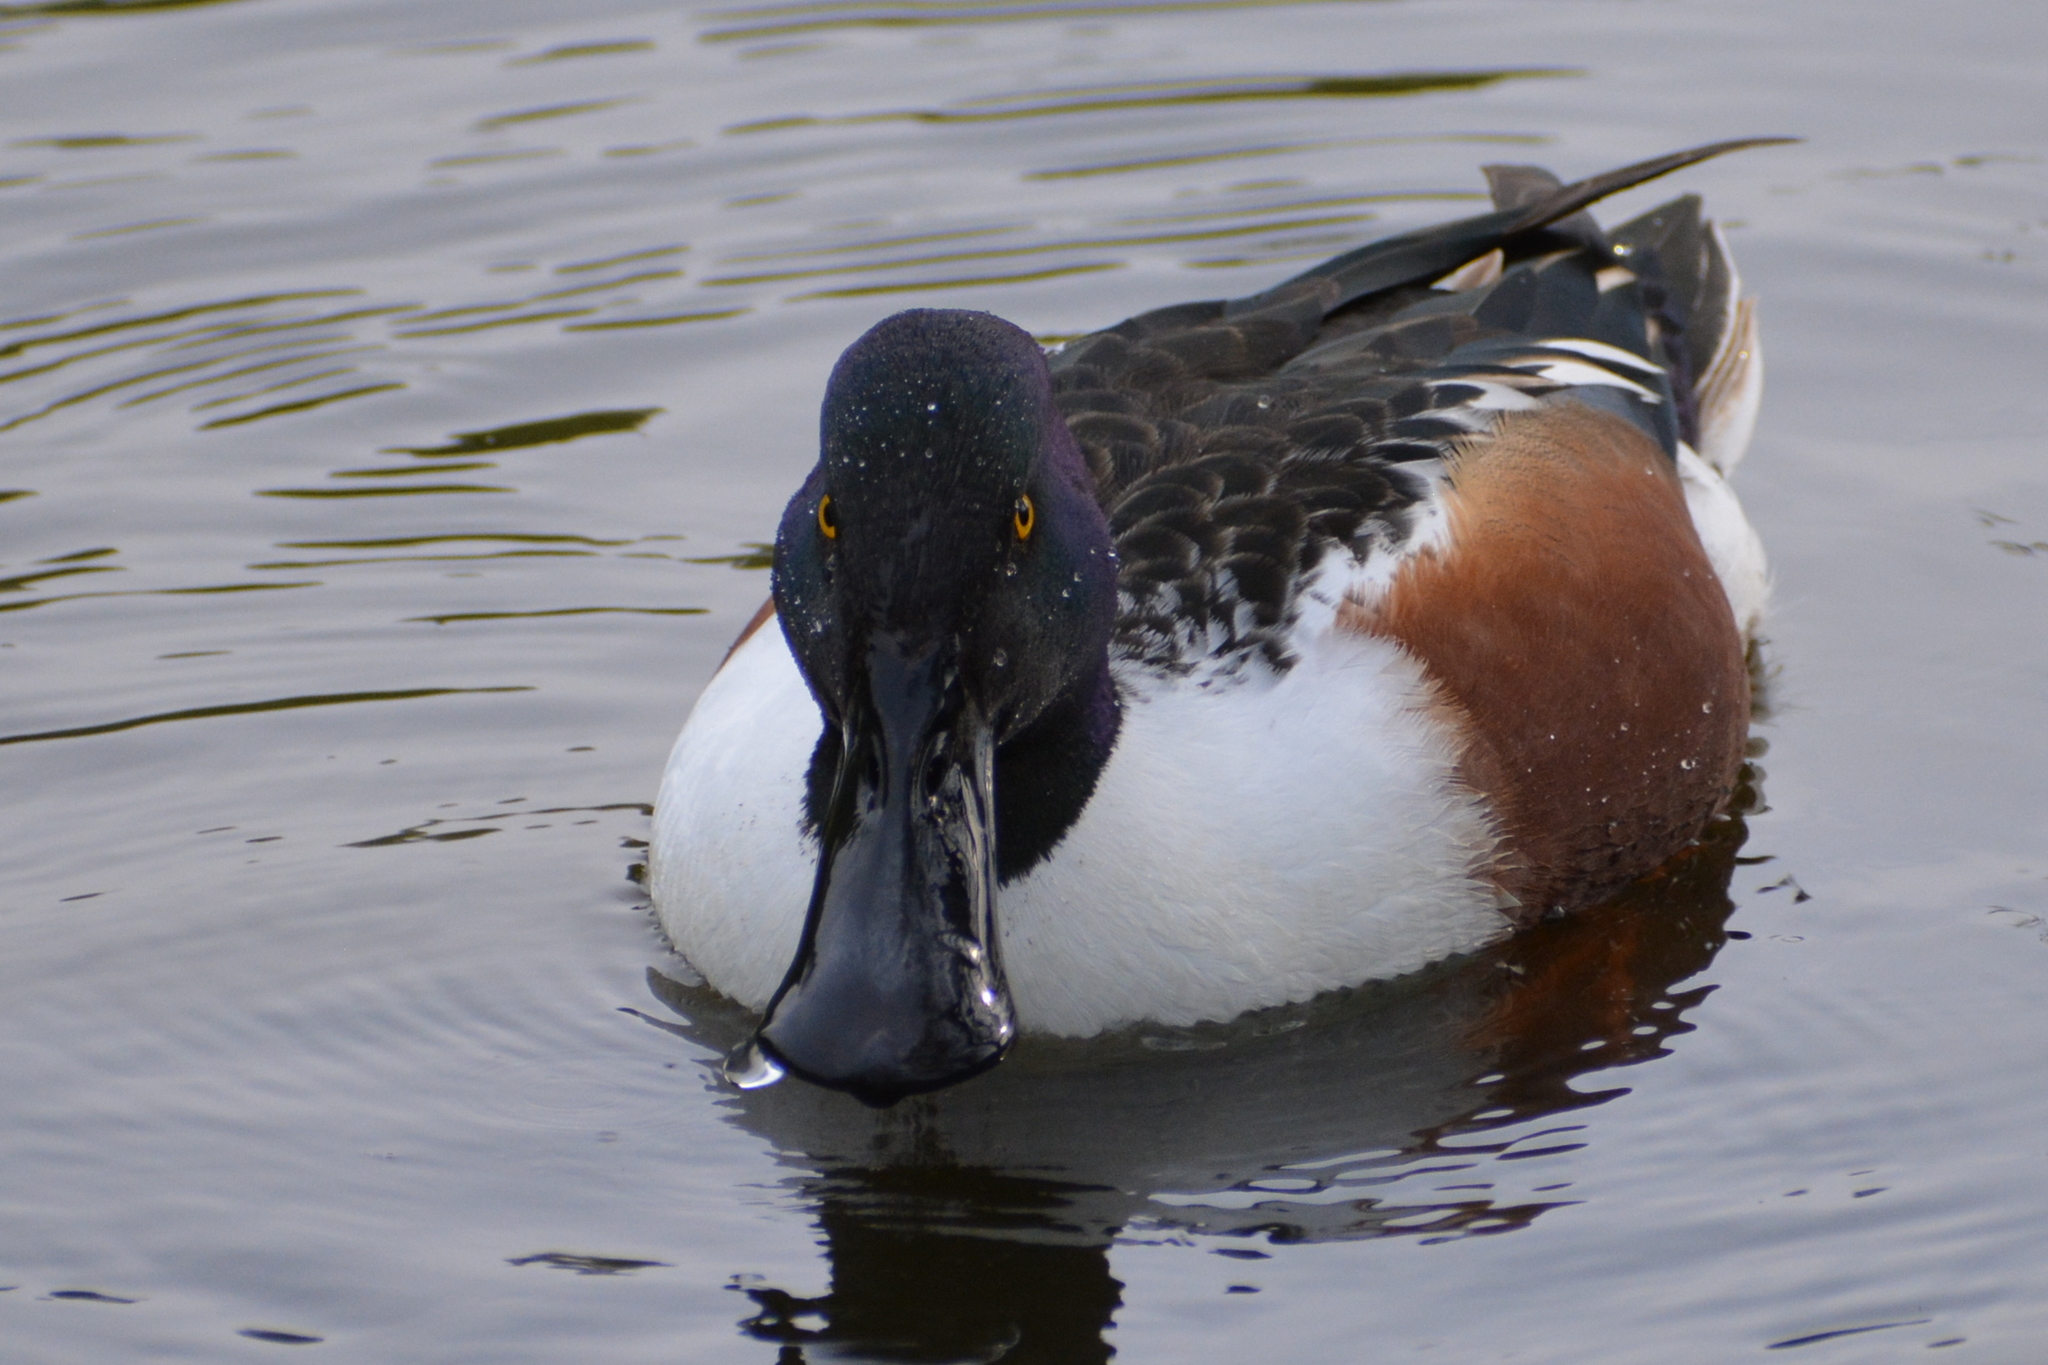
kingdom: Animalia
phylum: Chordata
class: Aves
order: Anseriformes
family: Anatidae
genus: Spatula
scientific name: Spatula clypeata
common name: Northern shoveler
